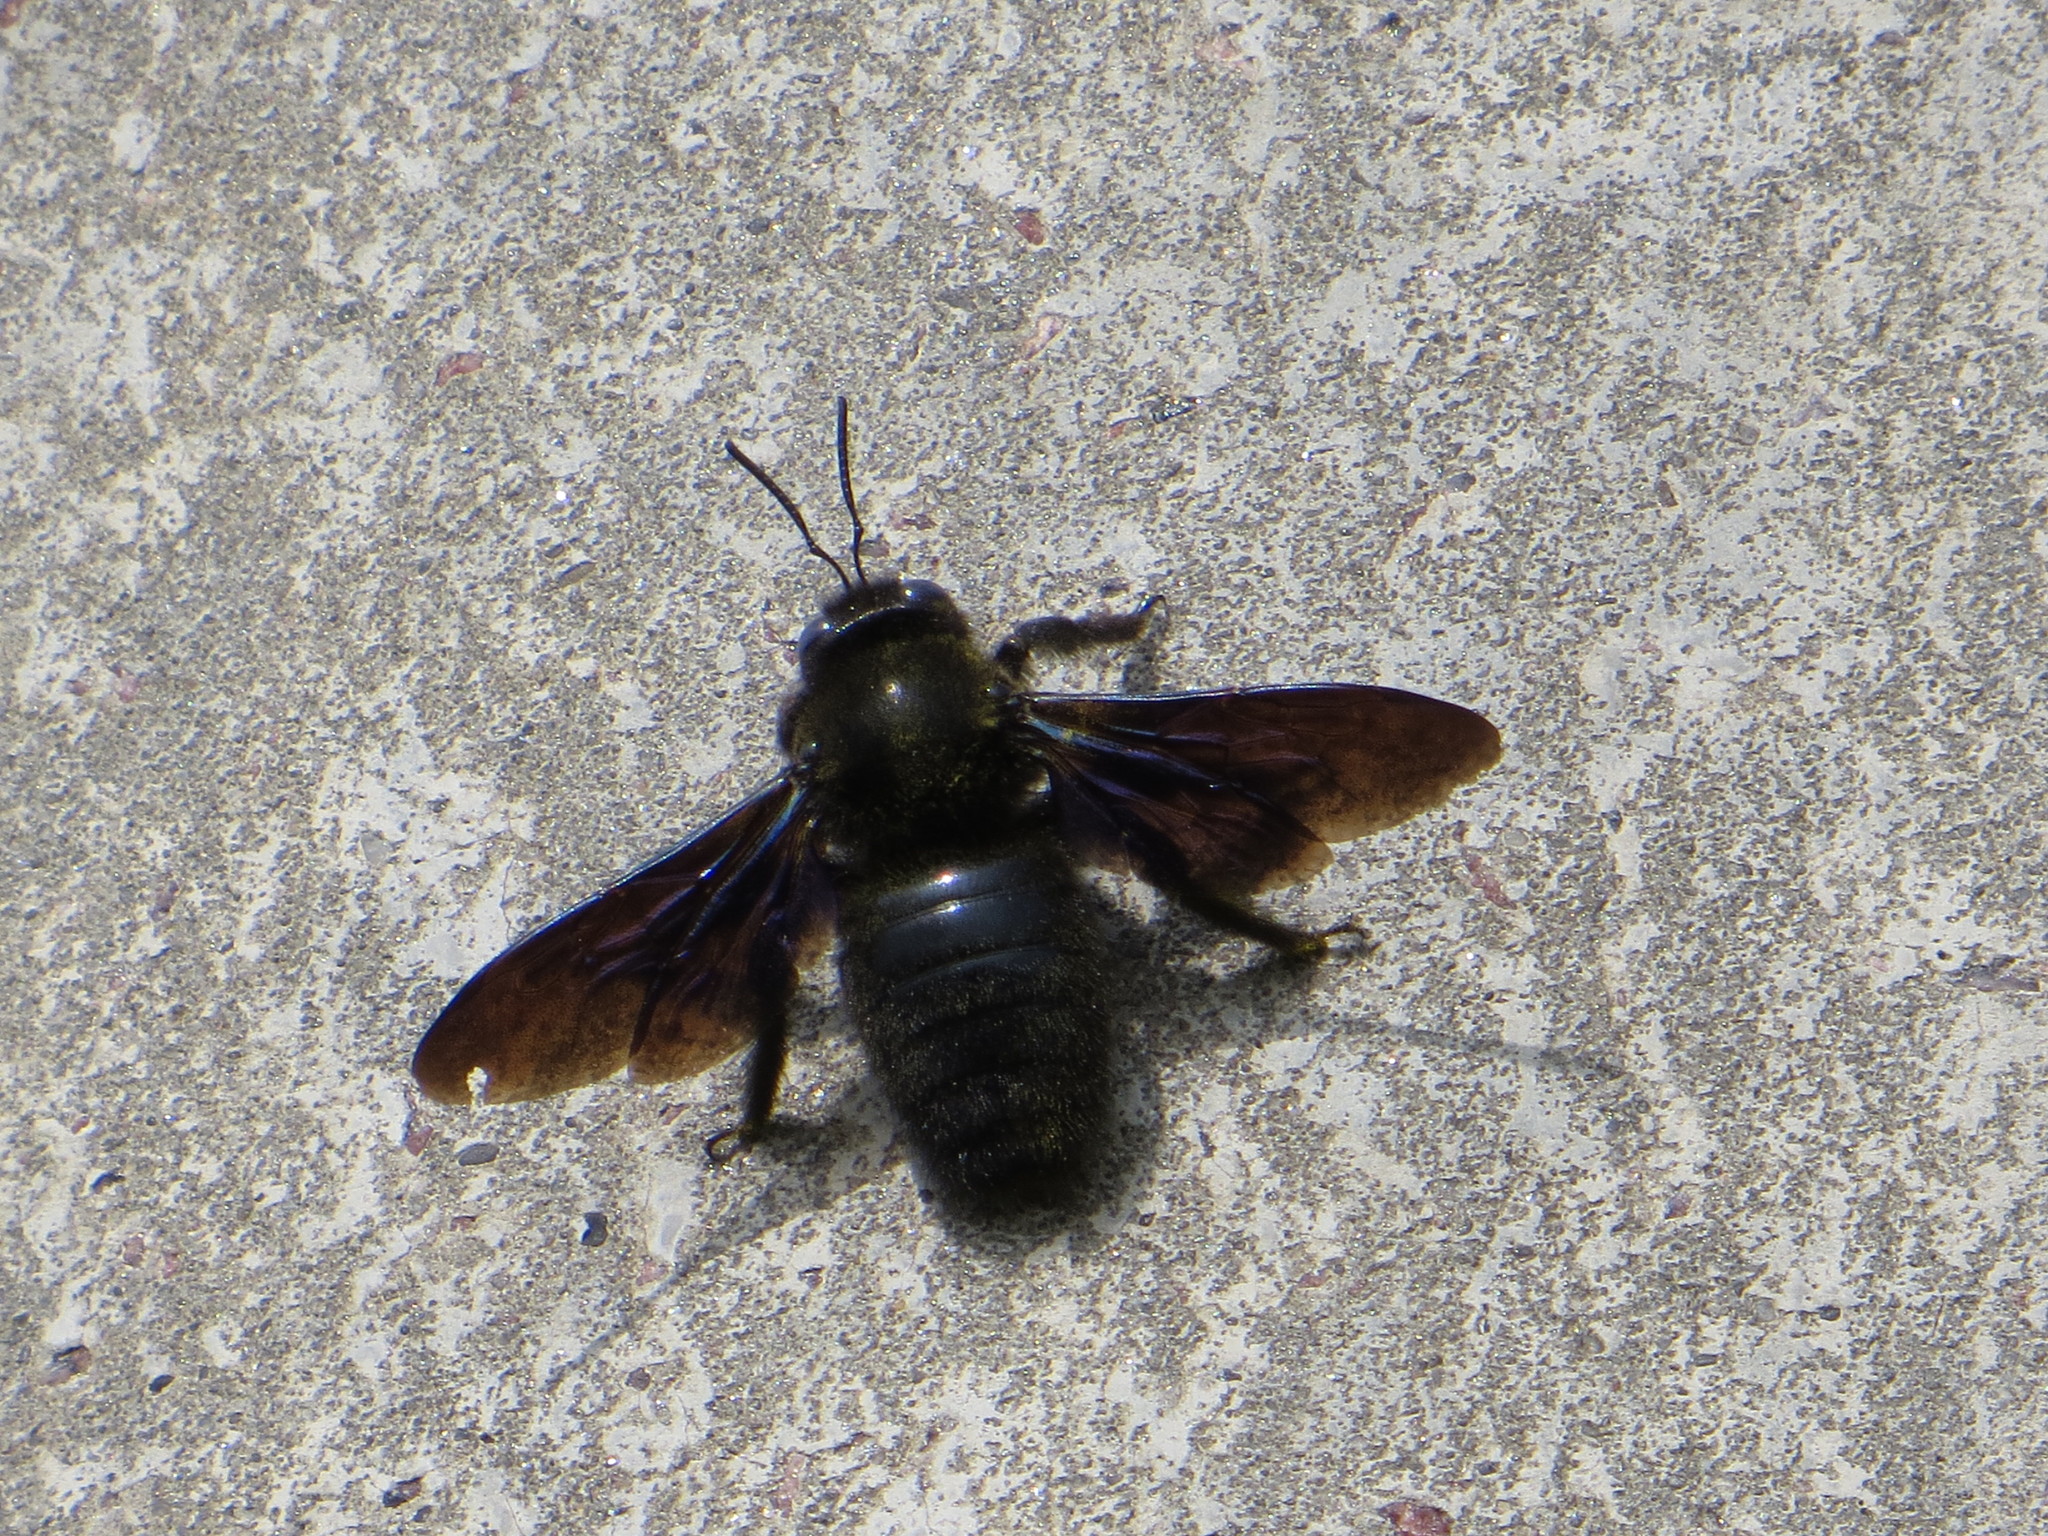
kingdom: Animalia
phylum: Arthropoda
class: Insecta
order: Hymenoptera
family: Apidae
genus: Xylocopa
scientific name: Xylocopa valga
